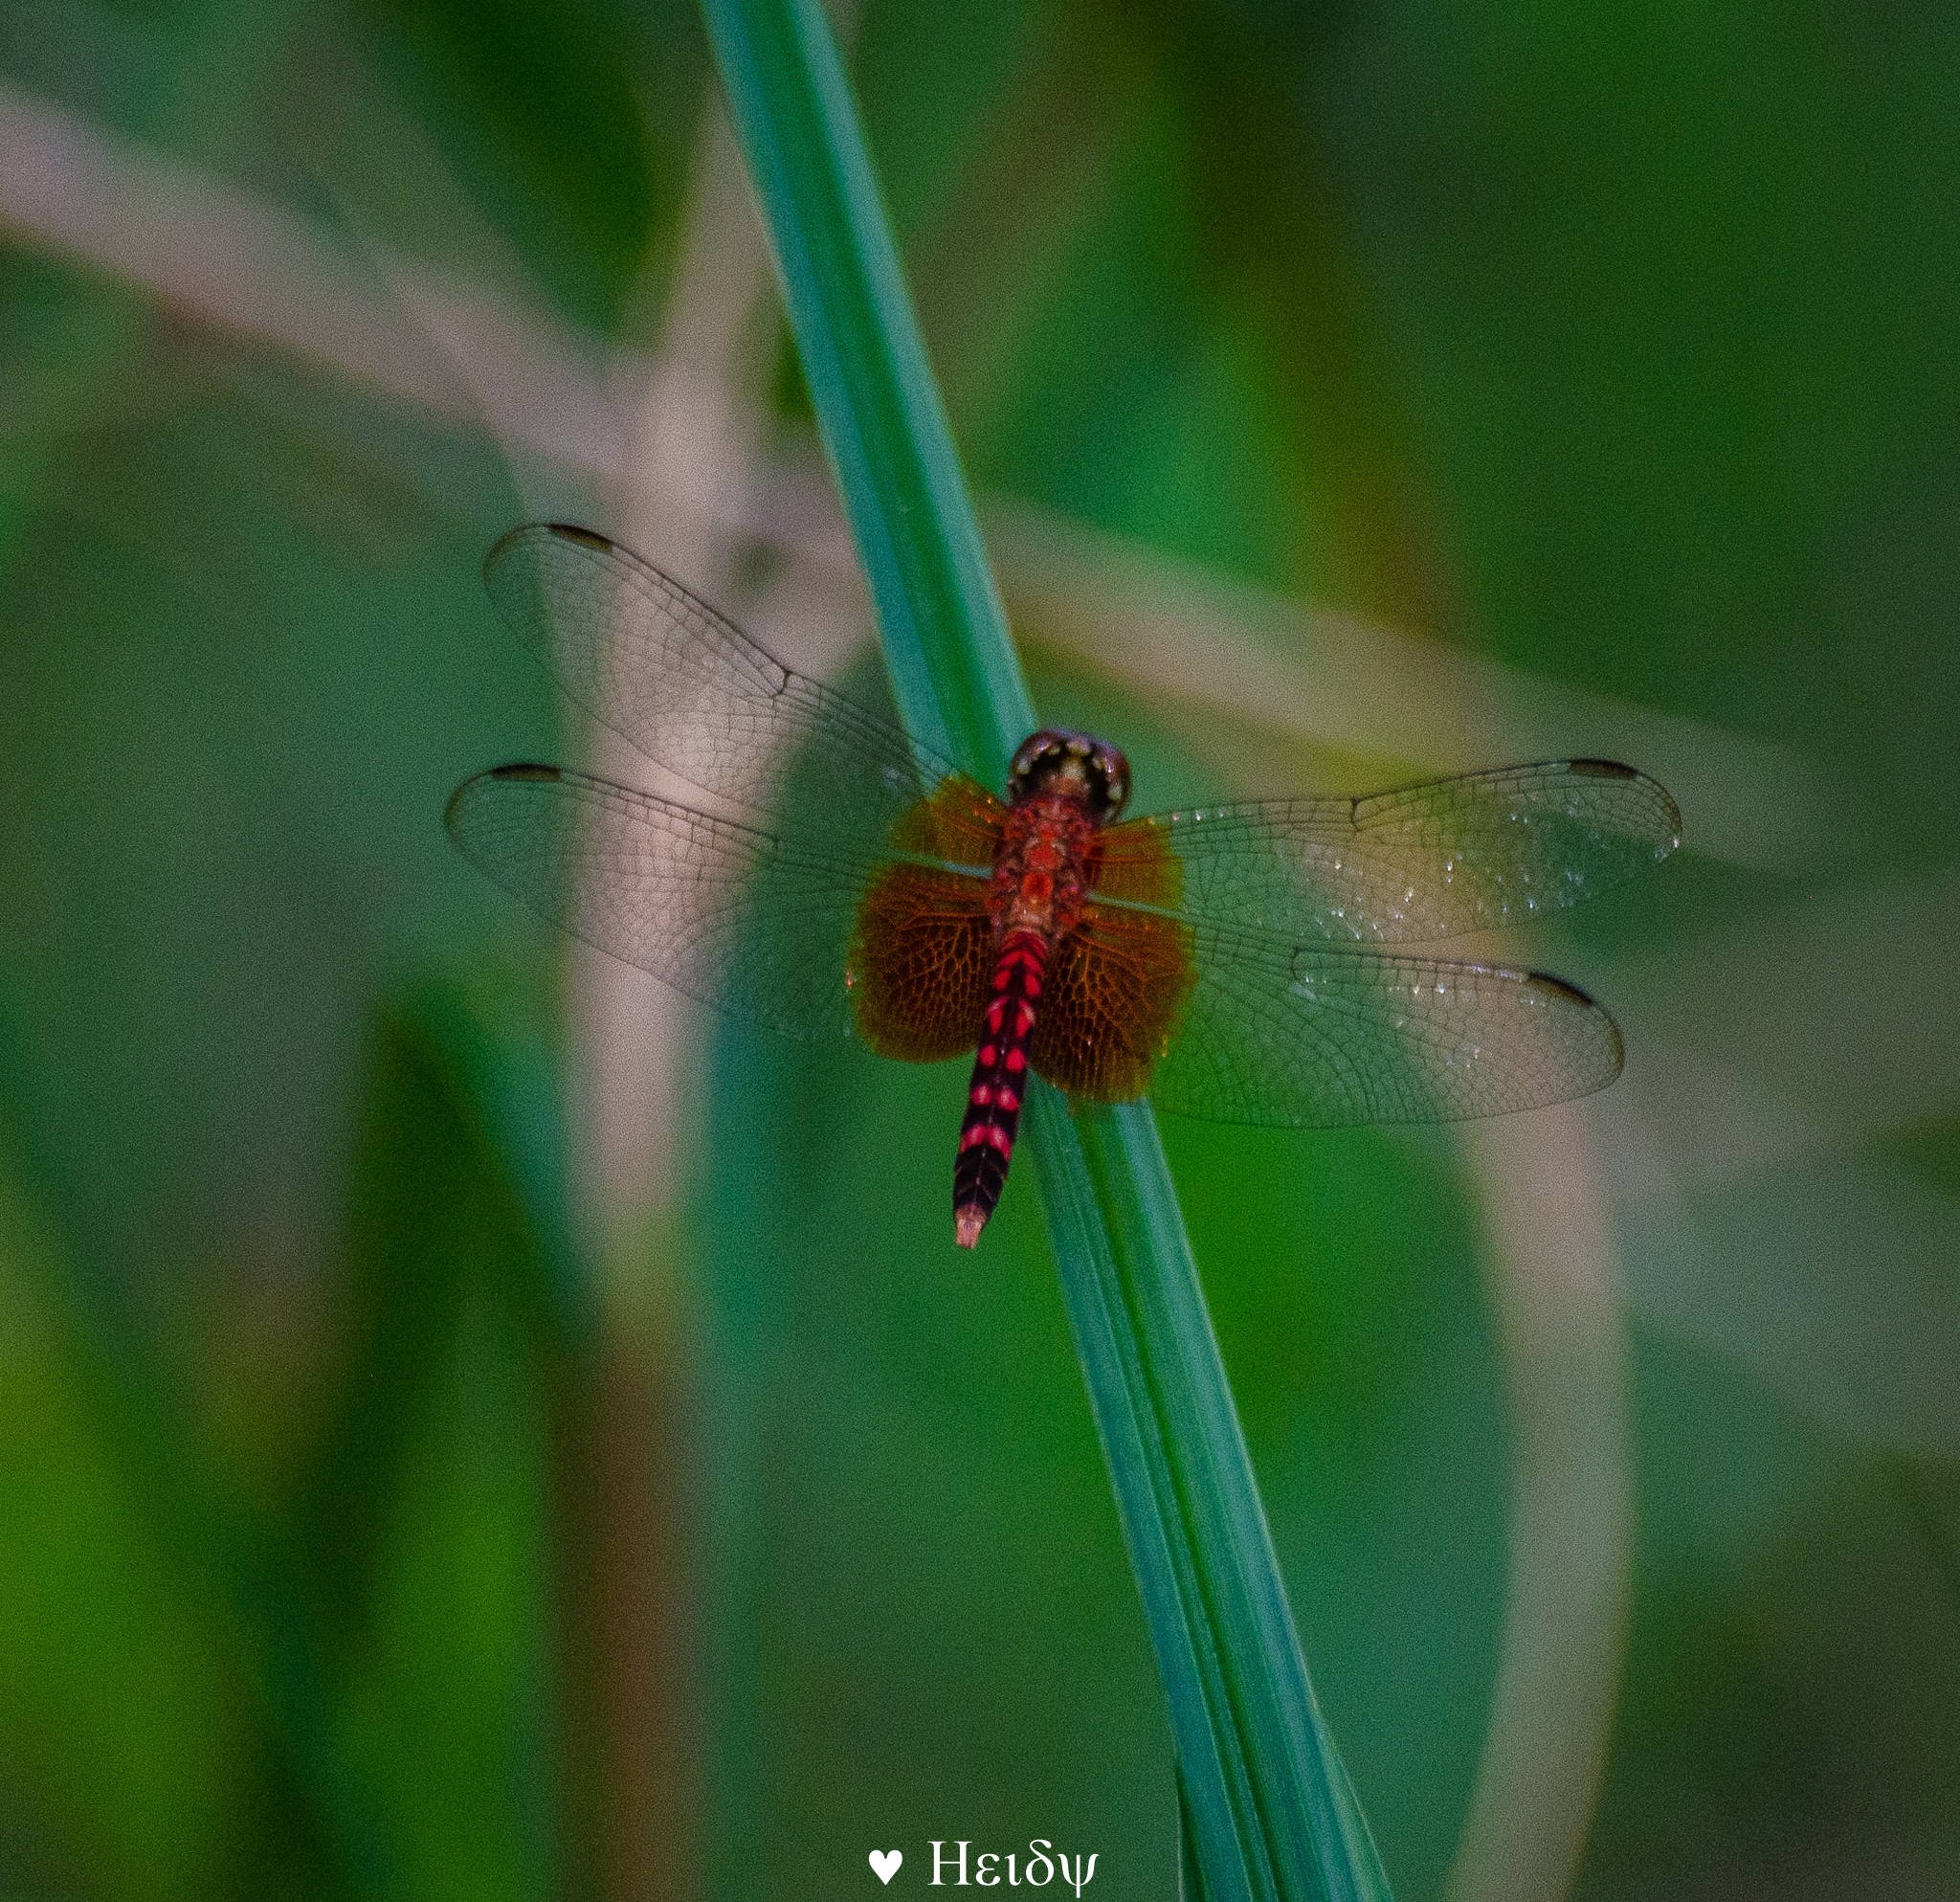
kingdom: Animalia
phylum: Arthropoda
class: Insecta
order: Odonata
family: Libellulidae
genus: Erythrodiplax
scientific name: Erythrodiplax fervida
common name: Red-mantled dragonlet
